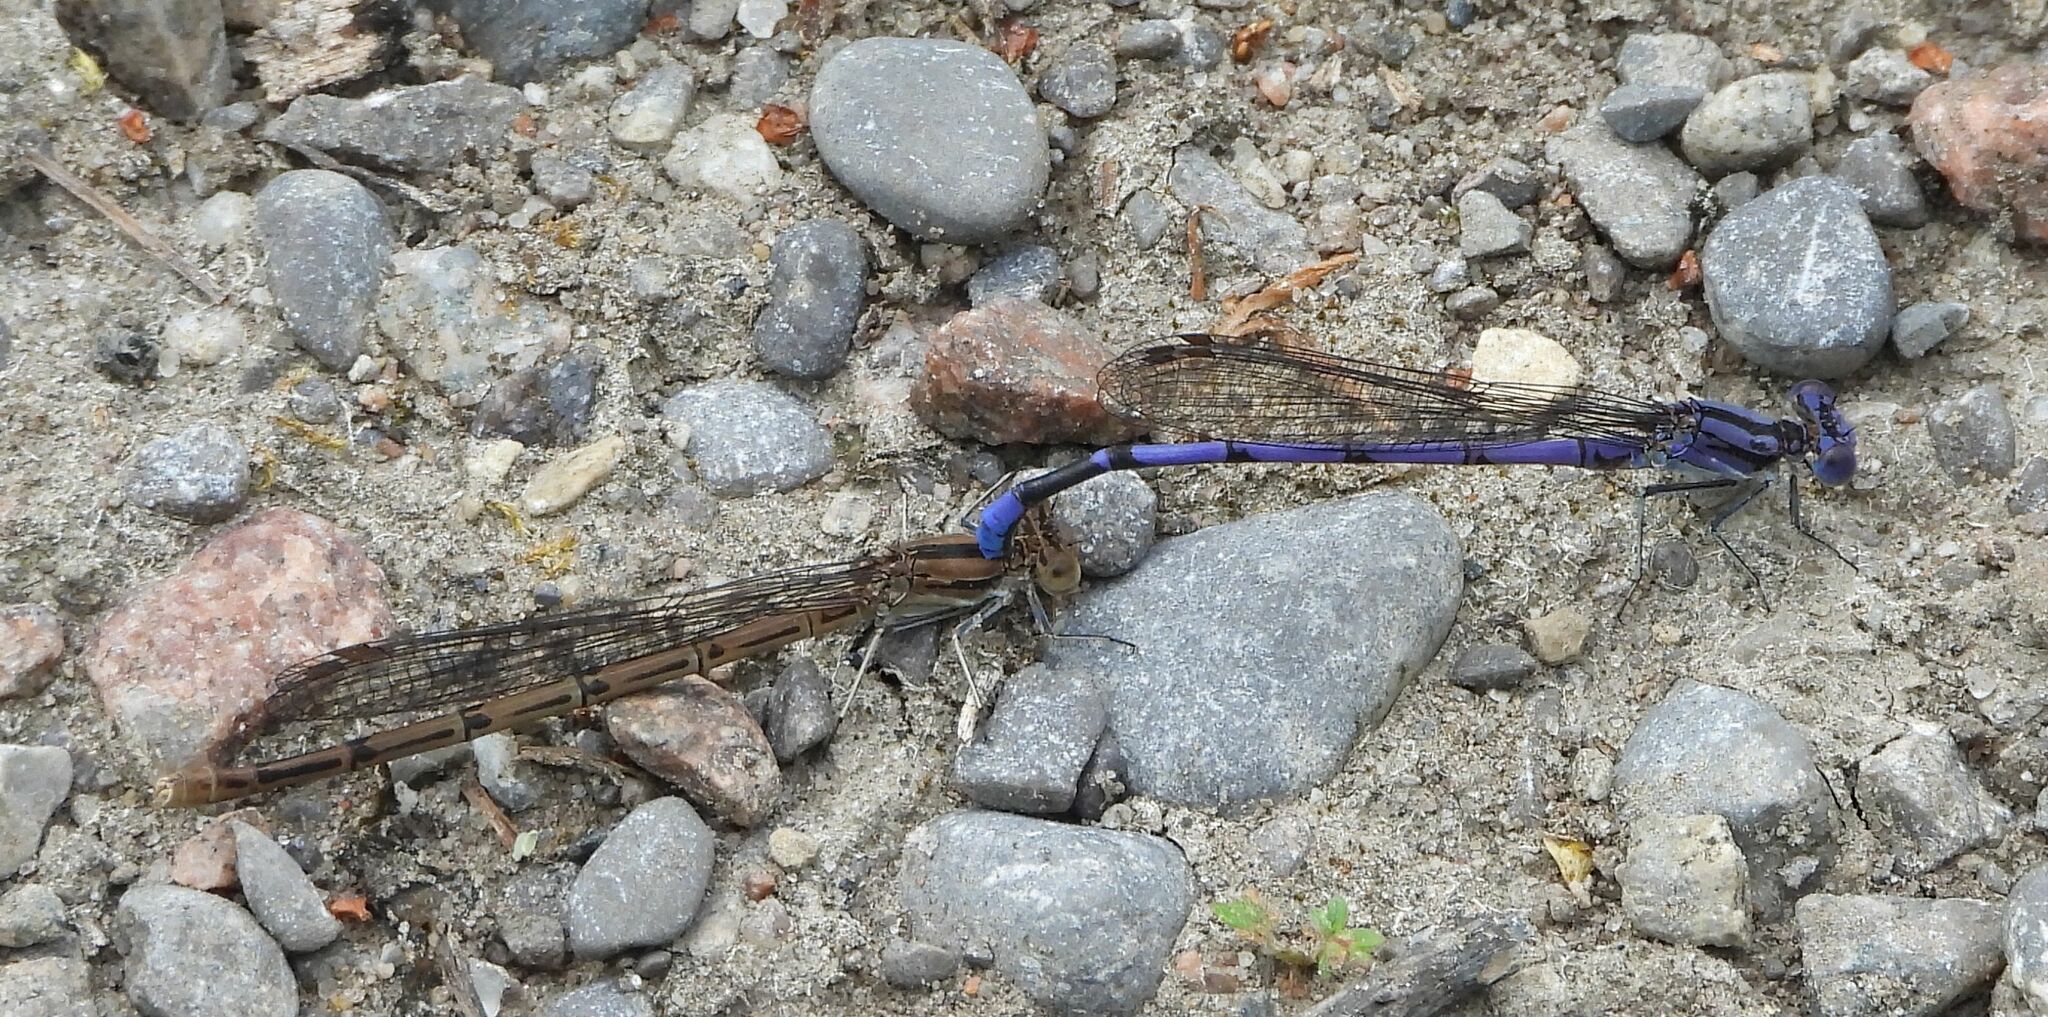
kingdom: Animalia
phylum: Arthropoda
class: Insecta
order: Odonata
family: Coenagrionidae
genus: Argia
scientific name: Argia fumipennis
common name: Variable dancer
